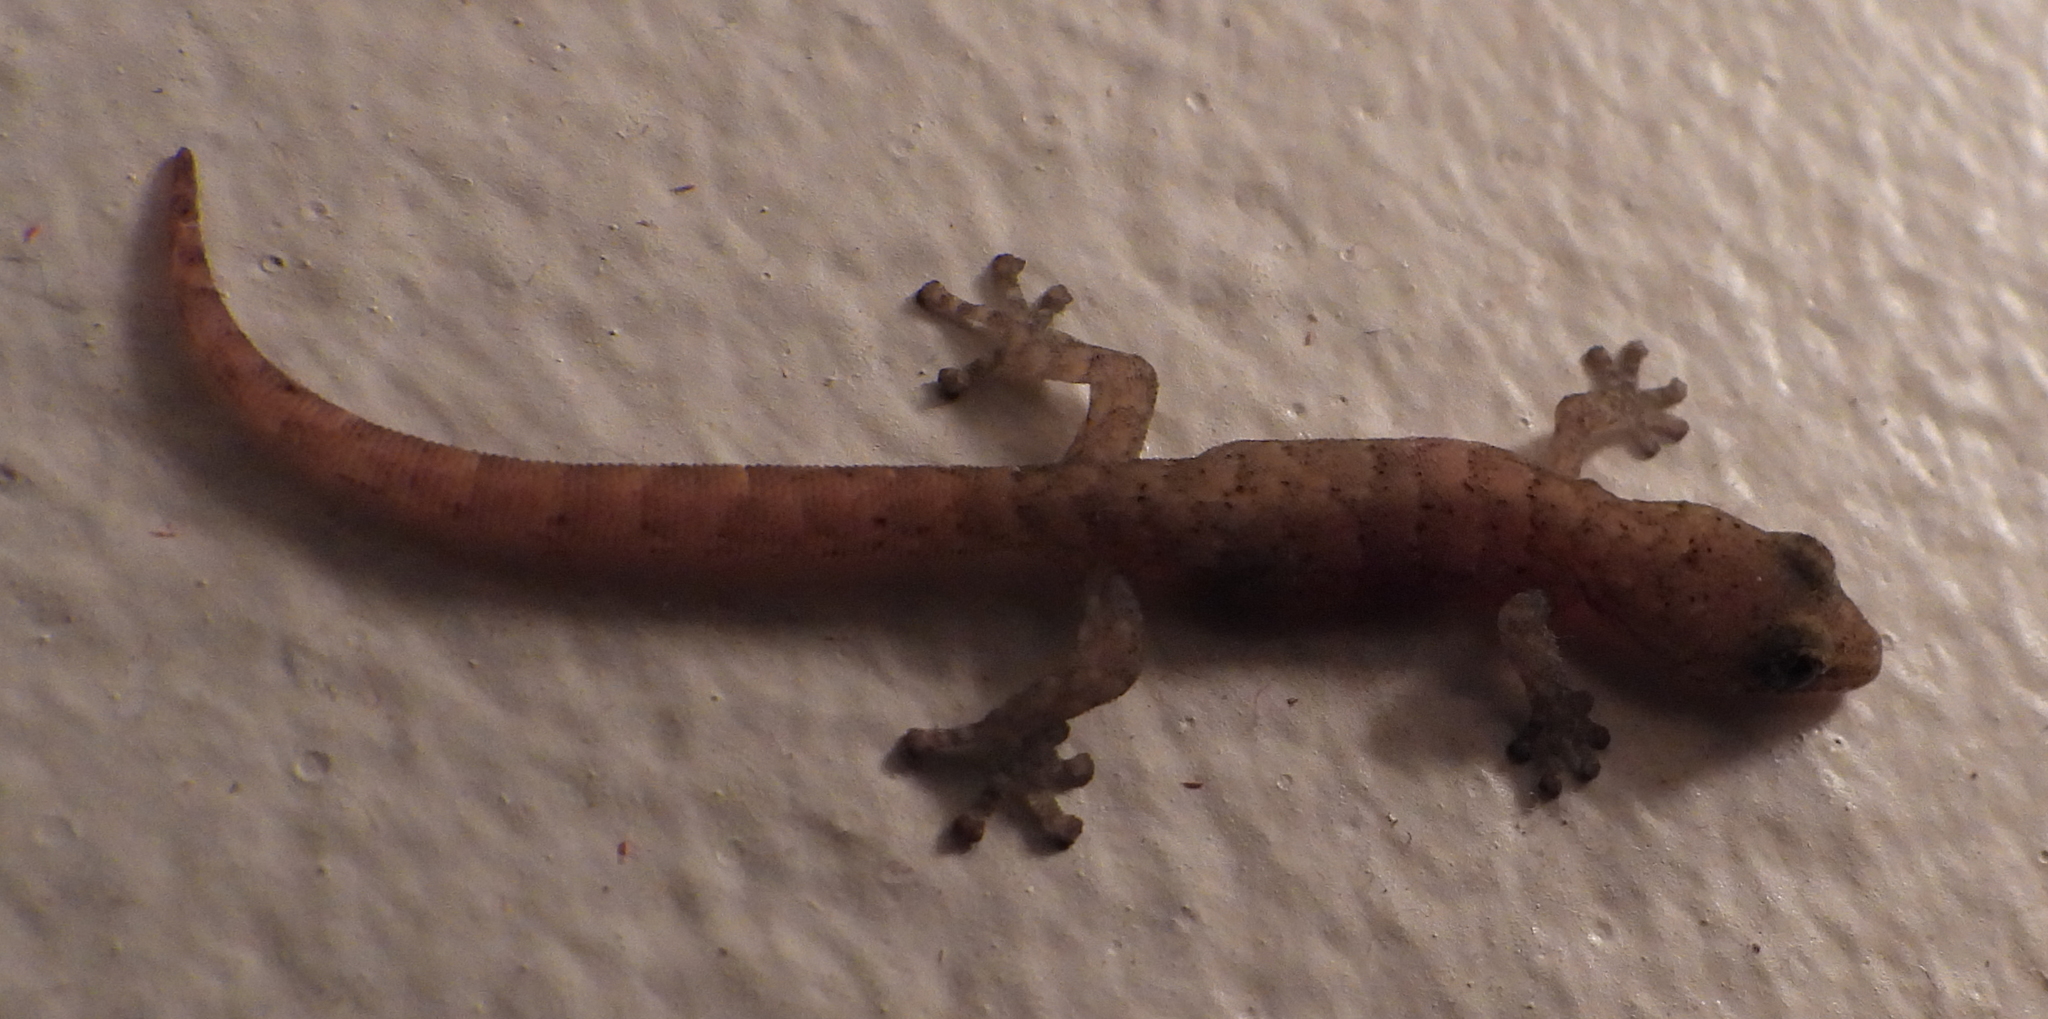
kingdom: Animalia
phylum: Chordata
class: Squamata
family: Gekkonidae
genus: Afrogecko
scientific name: Afrogecko porphyreus
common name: Marbled leaf-toed gecko
